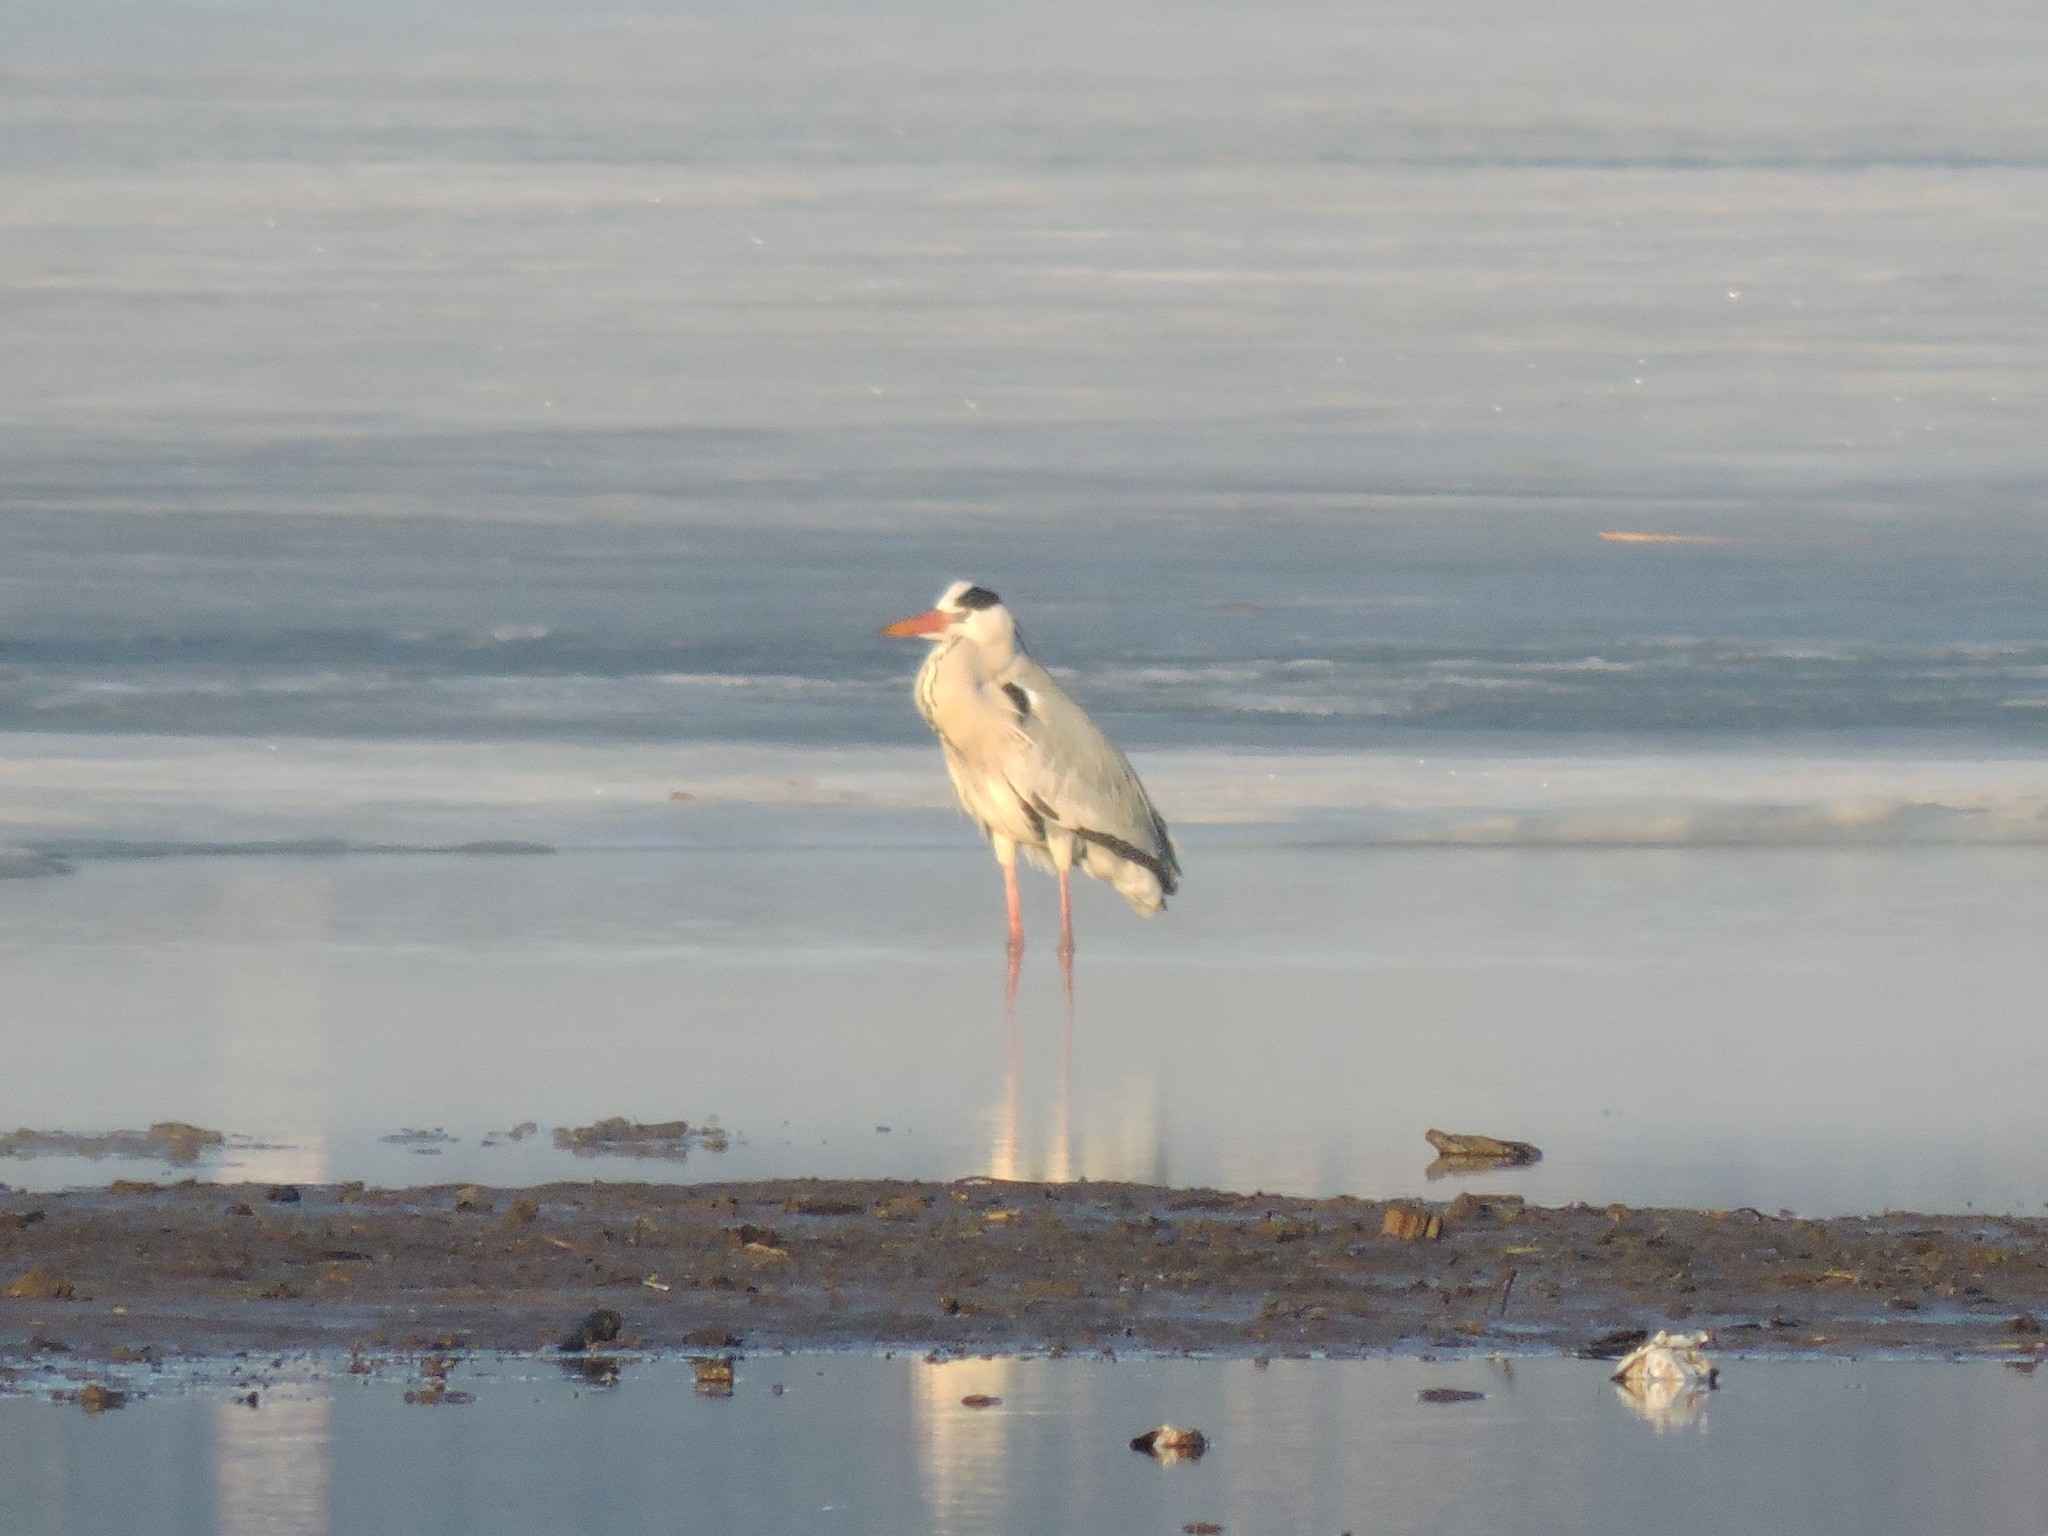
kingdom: Animalia
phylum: Chordata
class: Aves
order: Pelecaniformes
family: Ardeidae
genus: Ardea
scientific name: Ardea cinerea
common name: Grey heron
